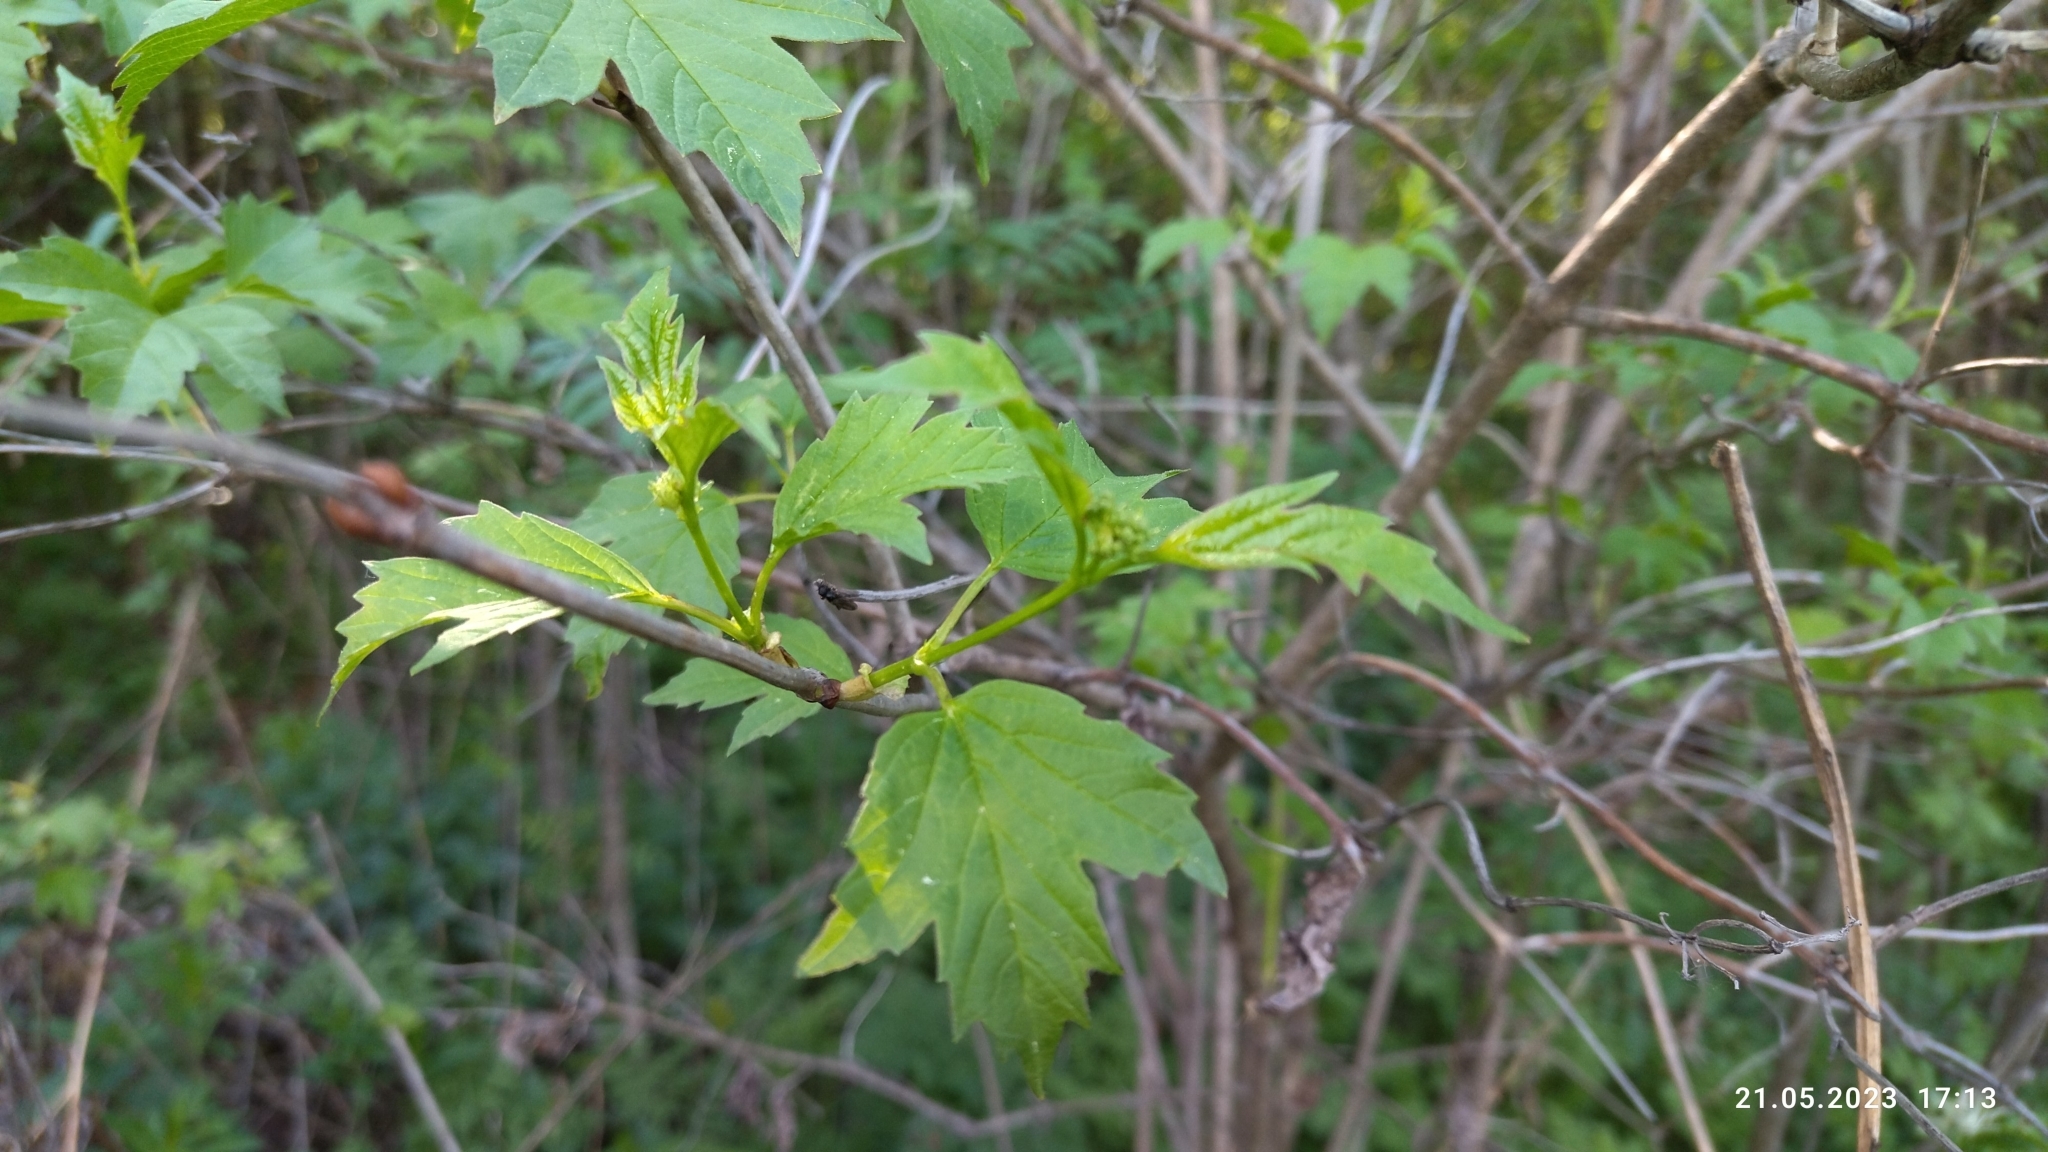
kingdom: Plantae
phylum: Tracheophyta
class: Magnoliopsida
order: Dipsacales
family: Viburnaceae
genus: Viburnum
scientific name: Viburnum opulus
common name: Guelder-rose
